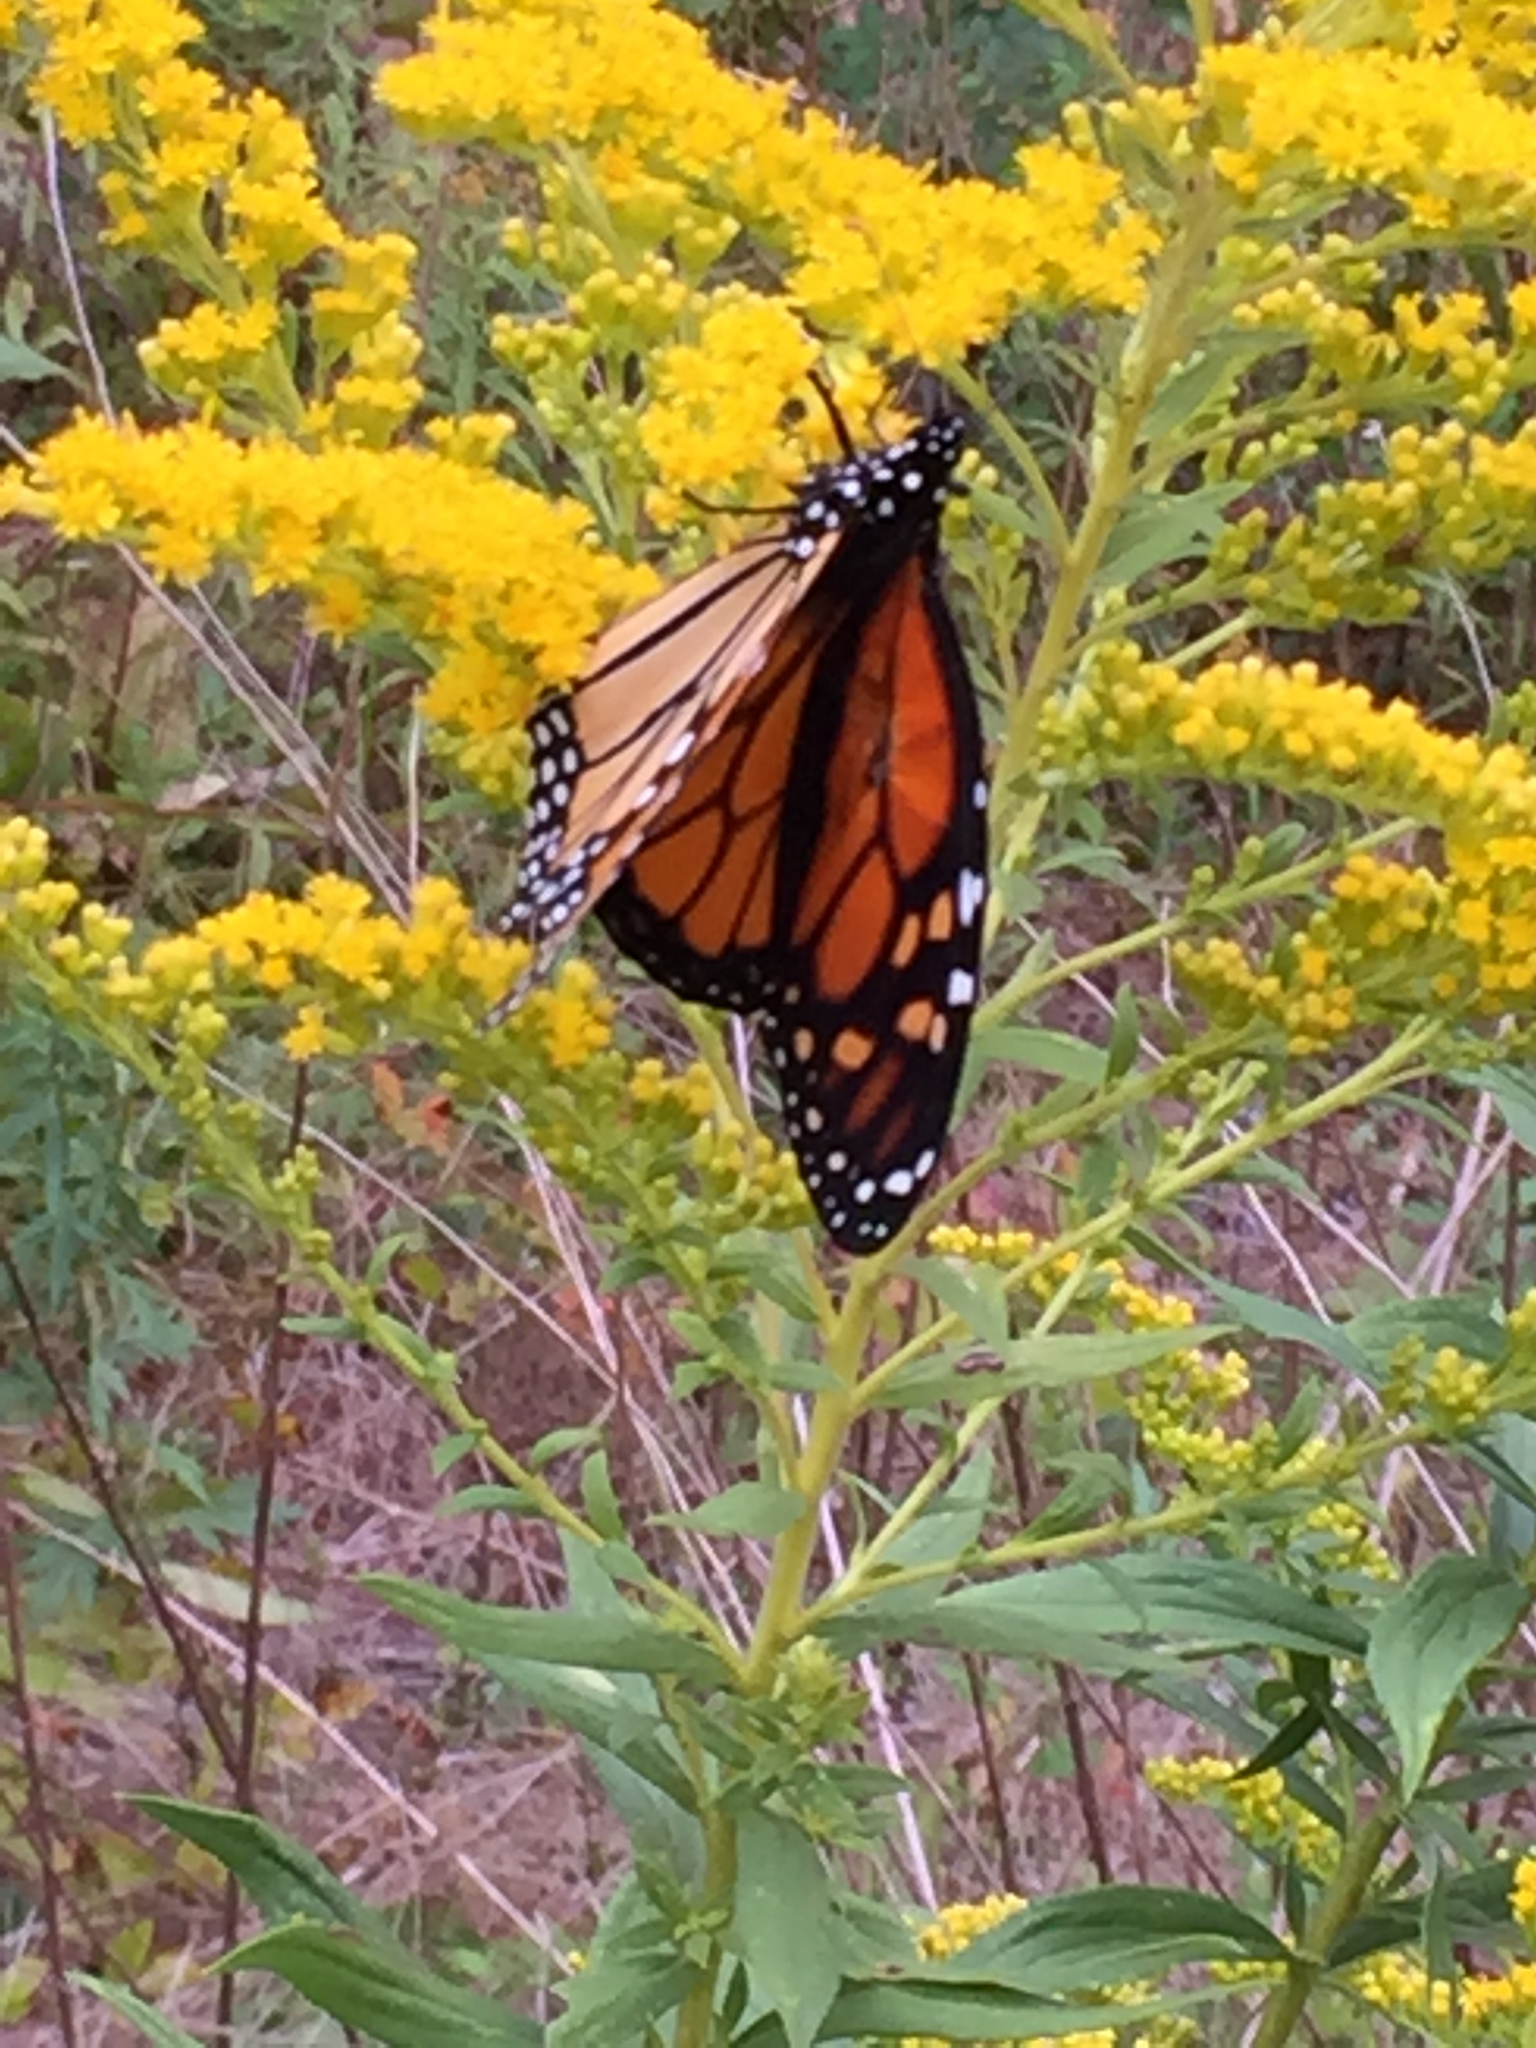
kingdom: Animalia
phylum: Arthropoda
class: Insecta
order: Lepidoptera
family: Nymphalidae
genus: Danaus
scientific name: Danaus plexippus
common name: Monarch
